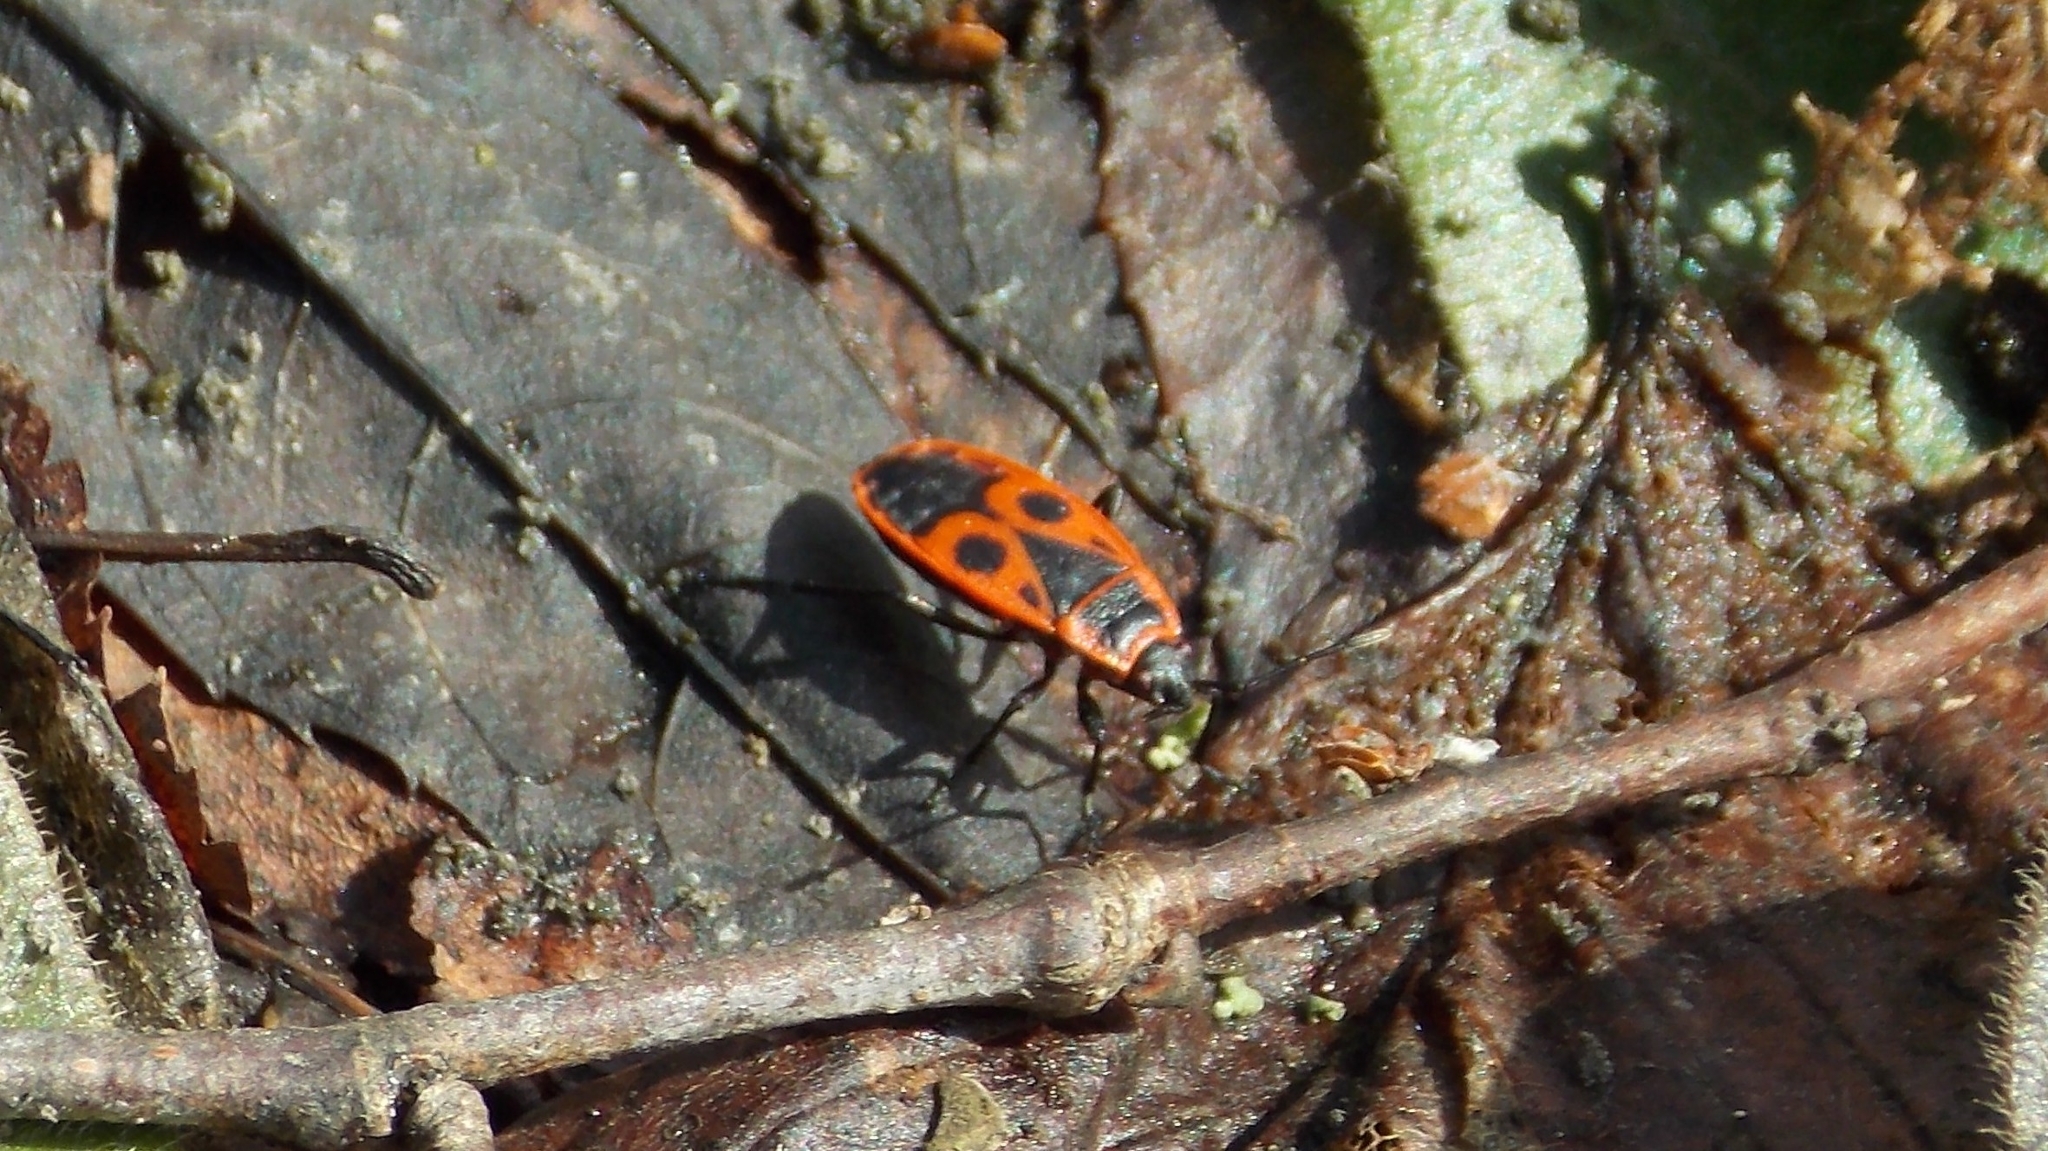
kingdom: Animalia
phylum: Arthropoda
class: Insecta
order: Hemiptera
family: Pyrrhocoridae
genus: Pyrrhocoris
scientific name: Pyrrhocoris apterus
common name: Firebug
